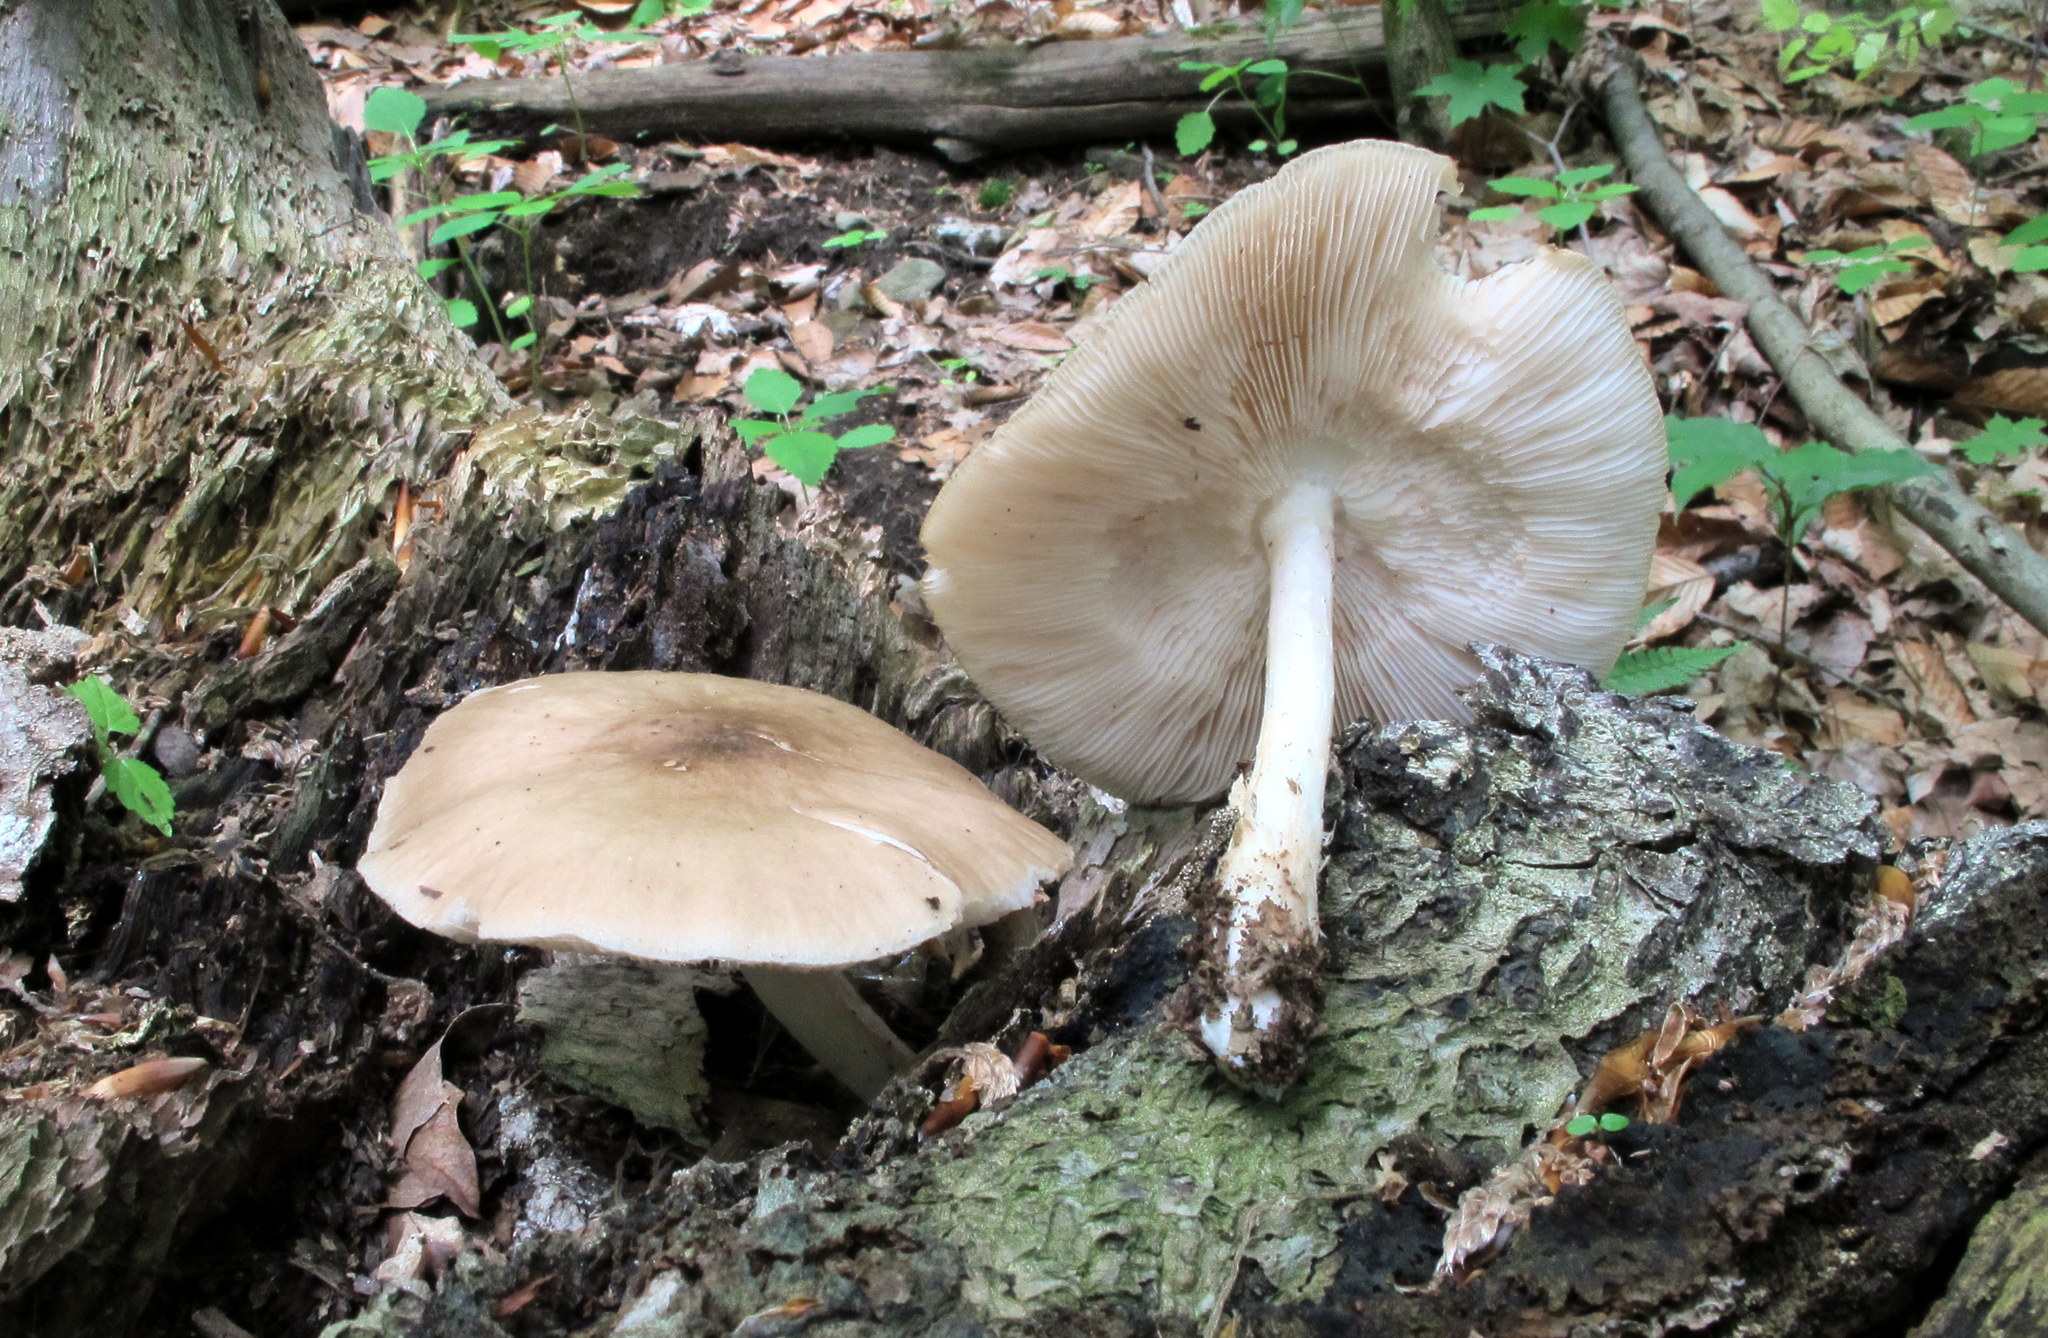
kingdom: Fungi
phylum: Basidiomycota
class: Agaricomycetes
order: Agaricales
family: Pluteaceae
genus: Pluteus
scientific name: Pluteus cervinus
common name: Deer shield
